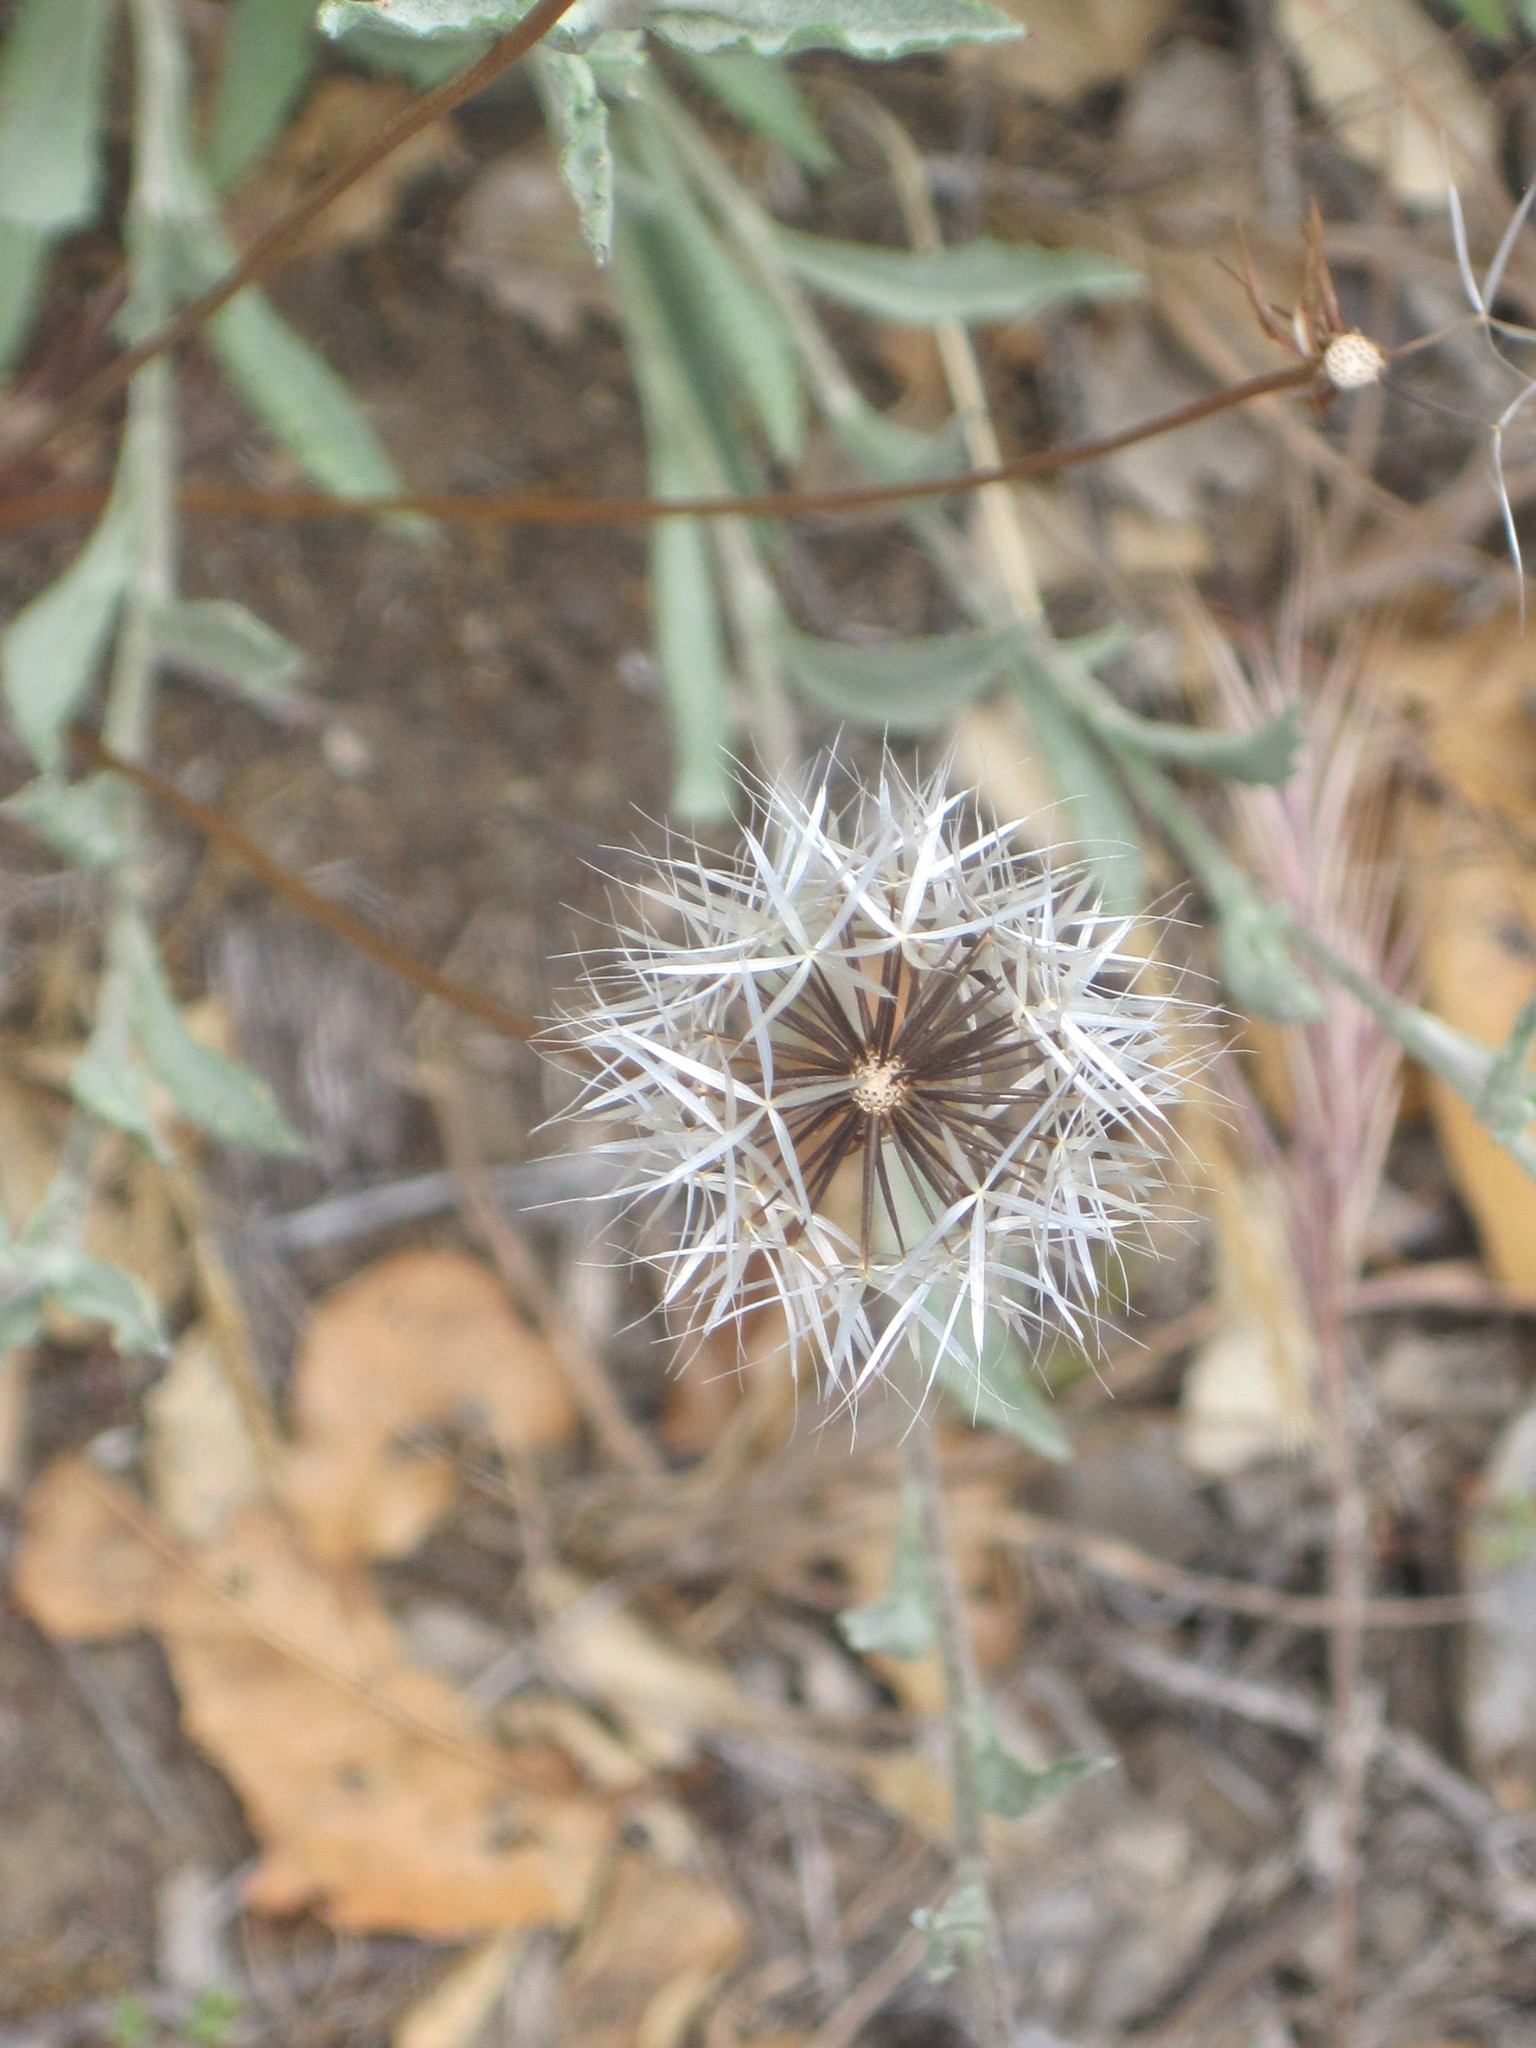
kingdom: Plantae
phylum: Tracheophyta
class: Magnoliopsida
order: Asterales
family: Asteraceae
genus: Microseris
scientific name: Microseris lindleyi
